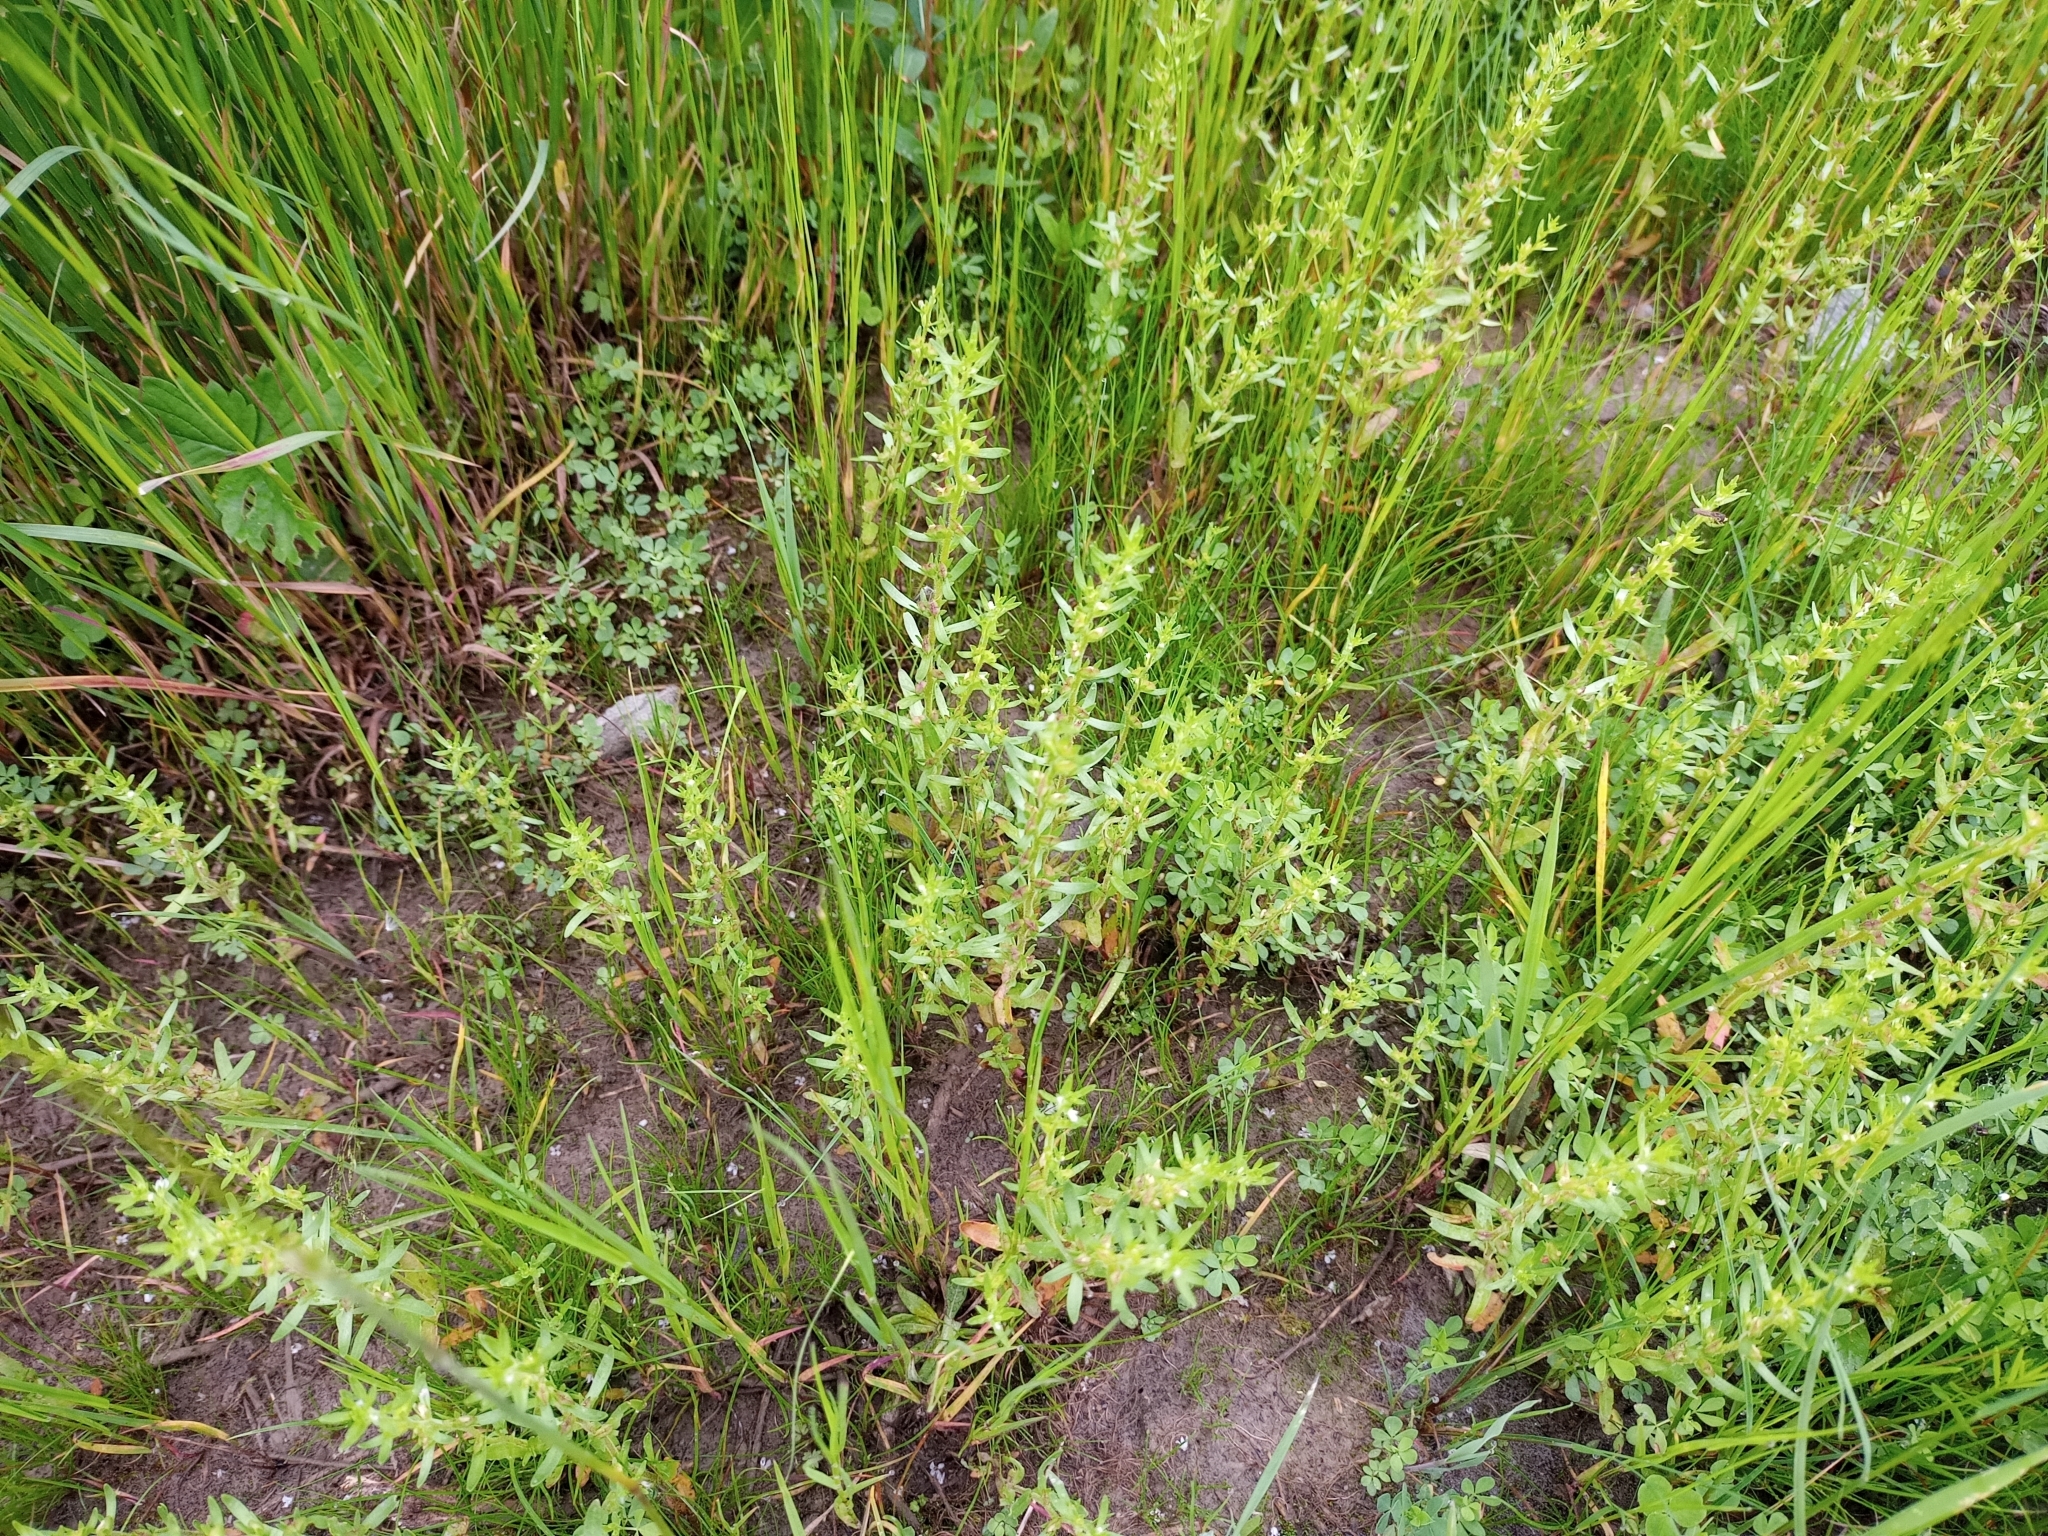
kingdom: Plantae
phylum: Tracheophyta
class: Magnoliopsida
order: Lamiales
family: Plantaginaceae
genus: Veronica
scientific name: Veronica peregrina
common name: Neckweed
